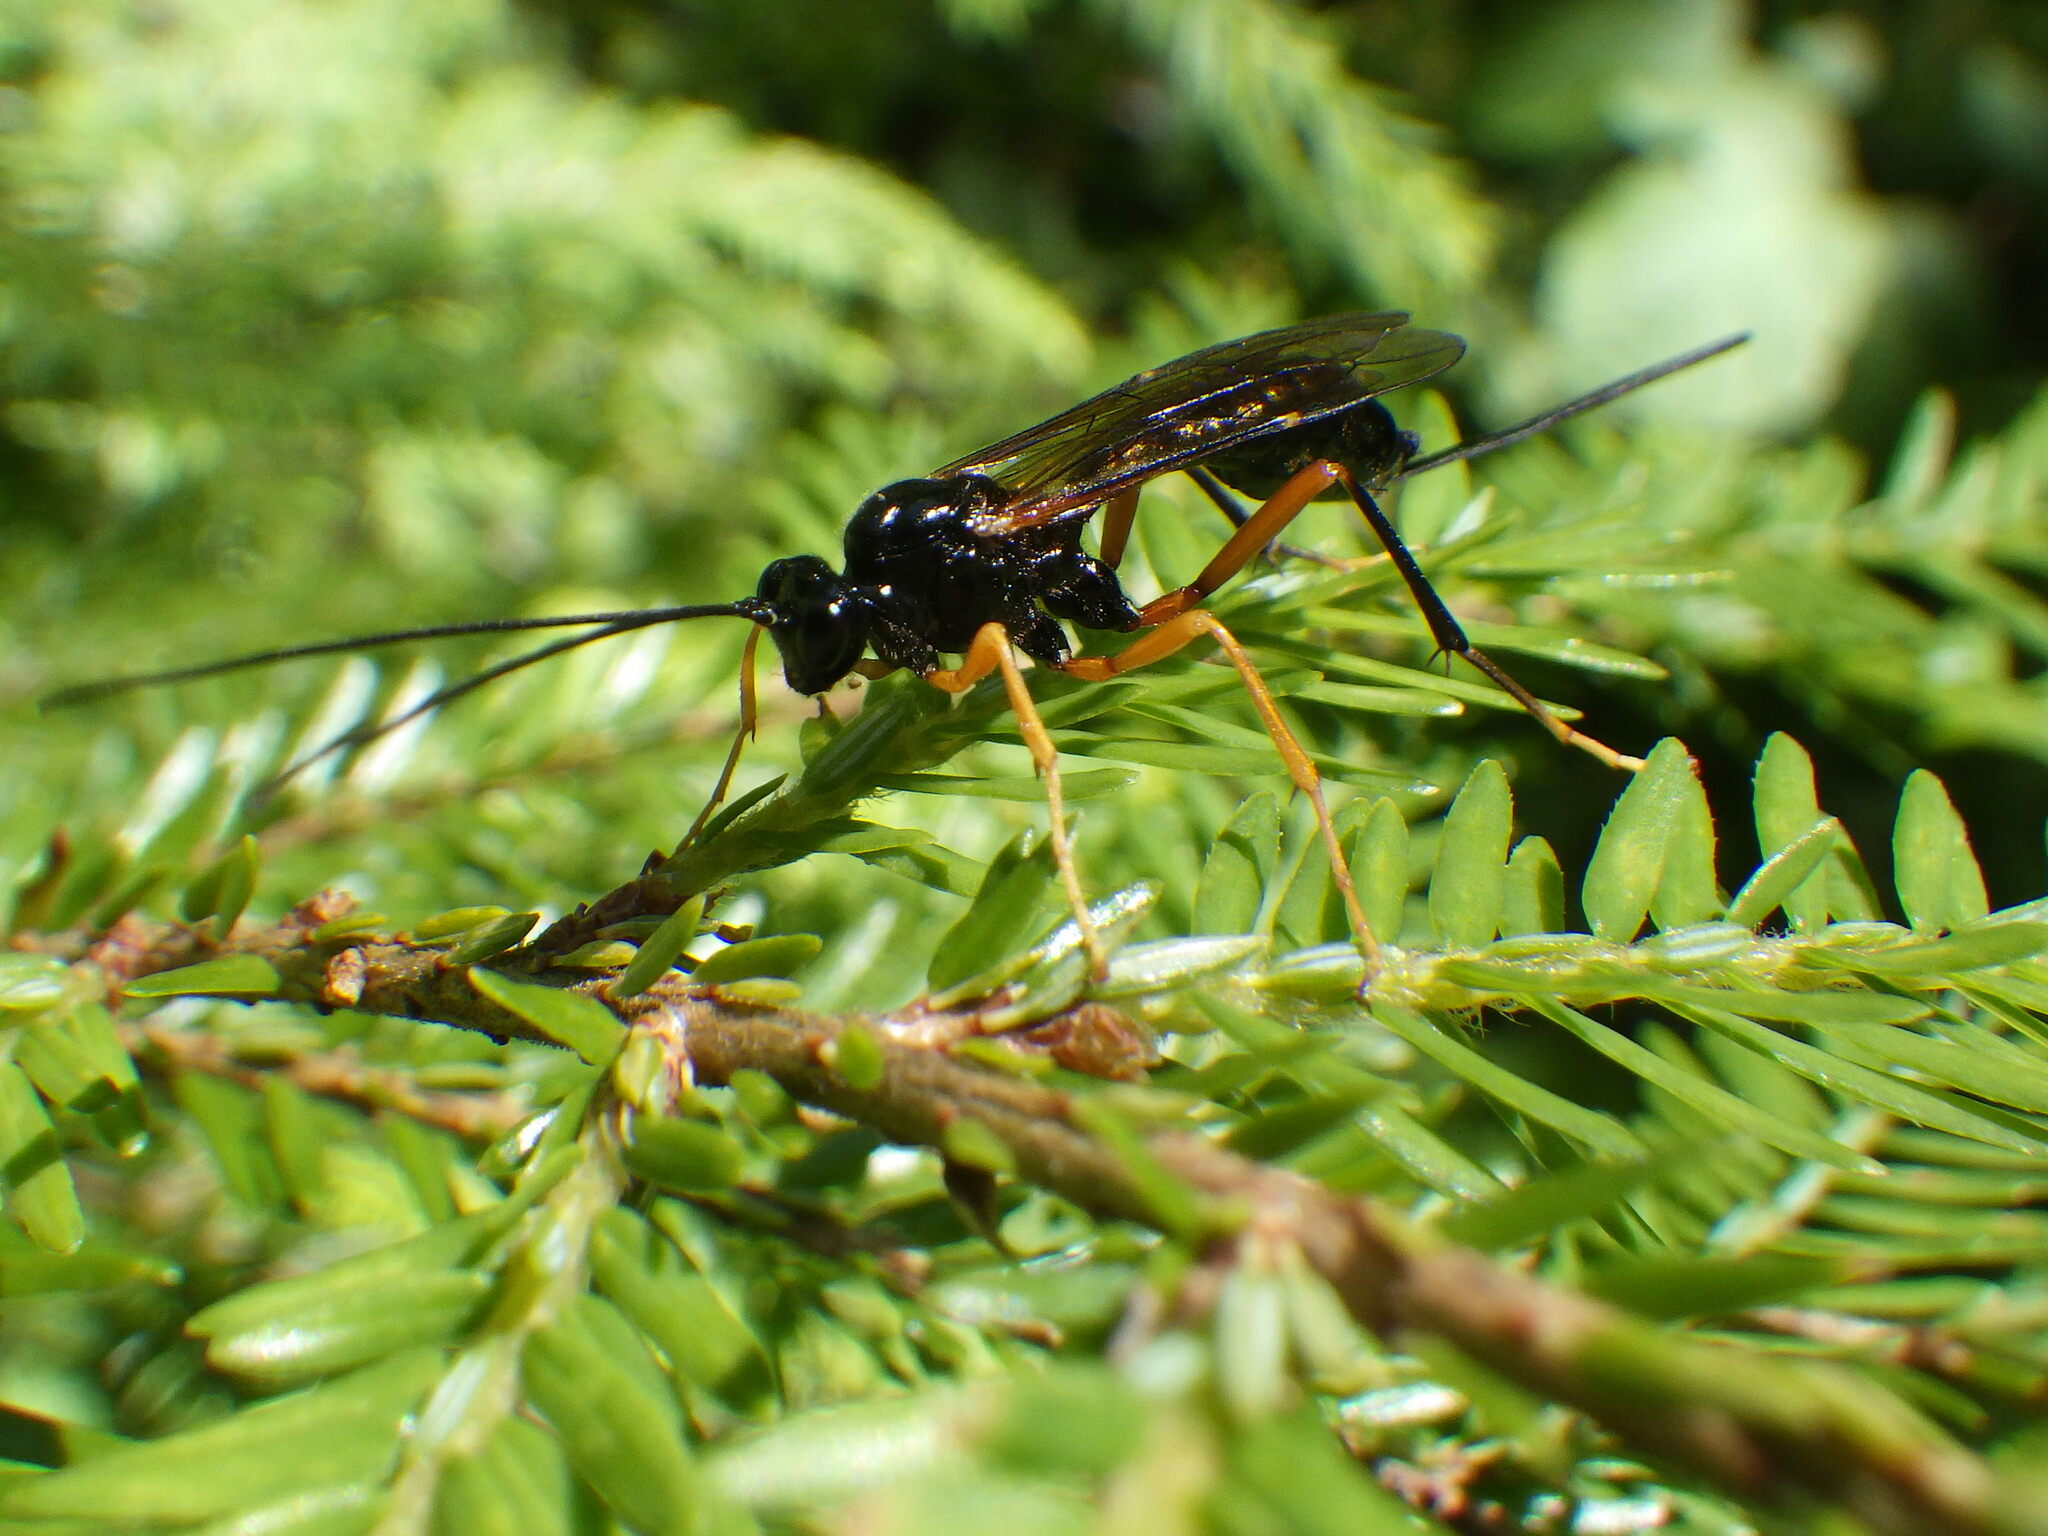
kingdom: Animalia
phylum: Arthropoda
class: Insecta
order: Hymenoptera
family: Ichneumonidae
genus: Coleocentrus
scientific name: Coleocentrus pettiti
